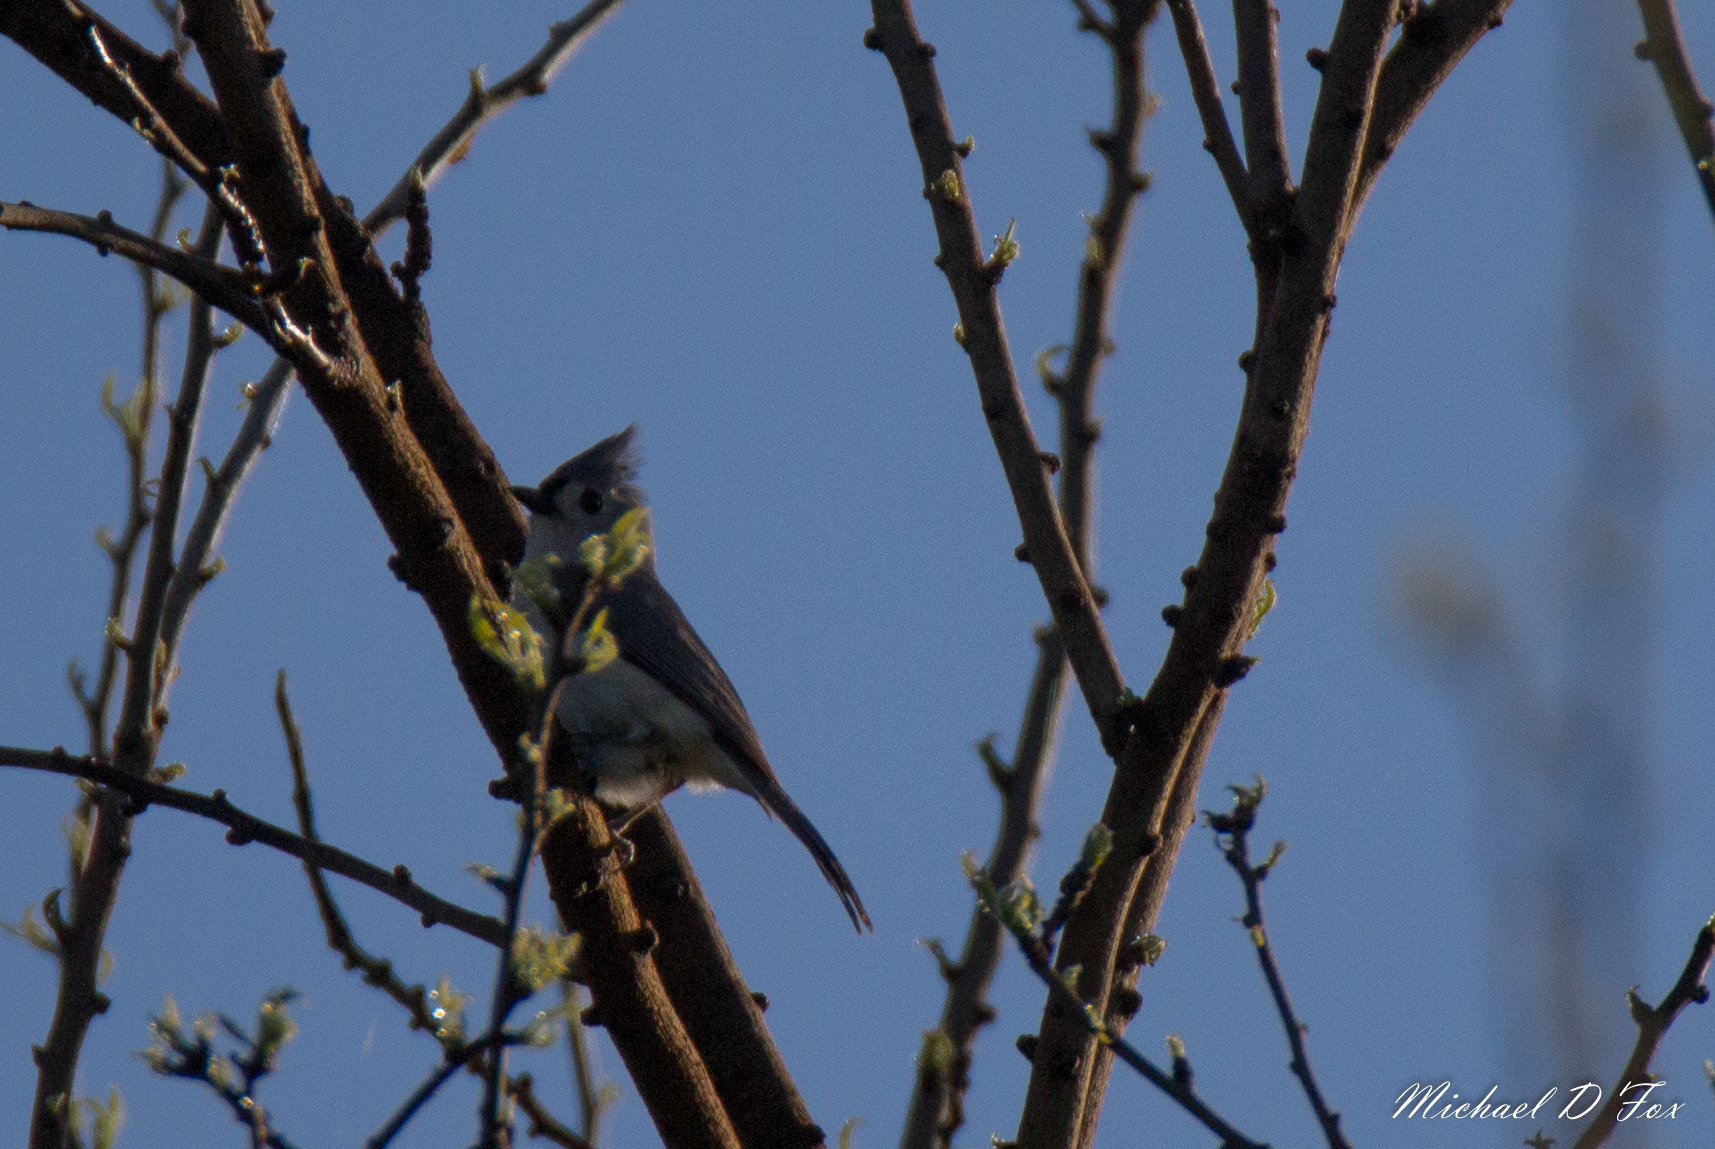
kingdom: Animalia
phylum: Chordata
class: Aves
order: Passeriformes
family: Paridae
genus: Baeolophus
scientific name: Baeolophus bicolor
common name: Tufted titmouse
